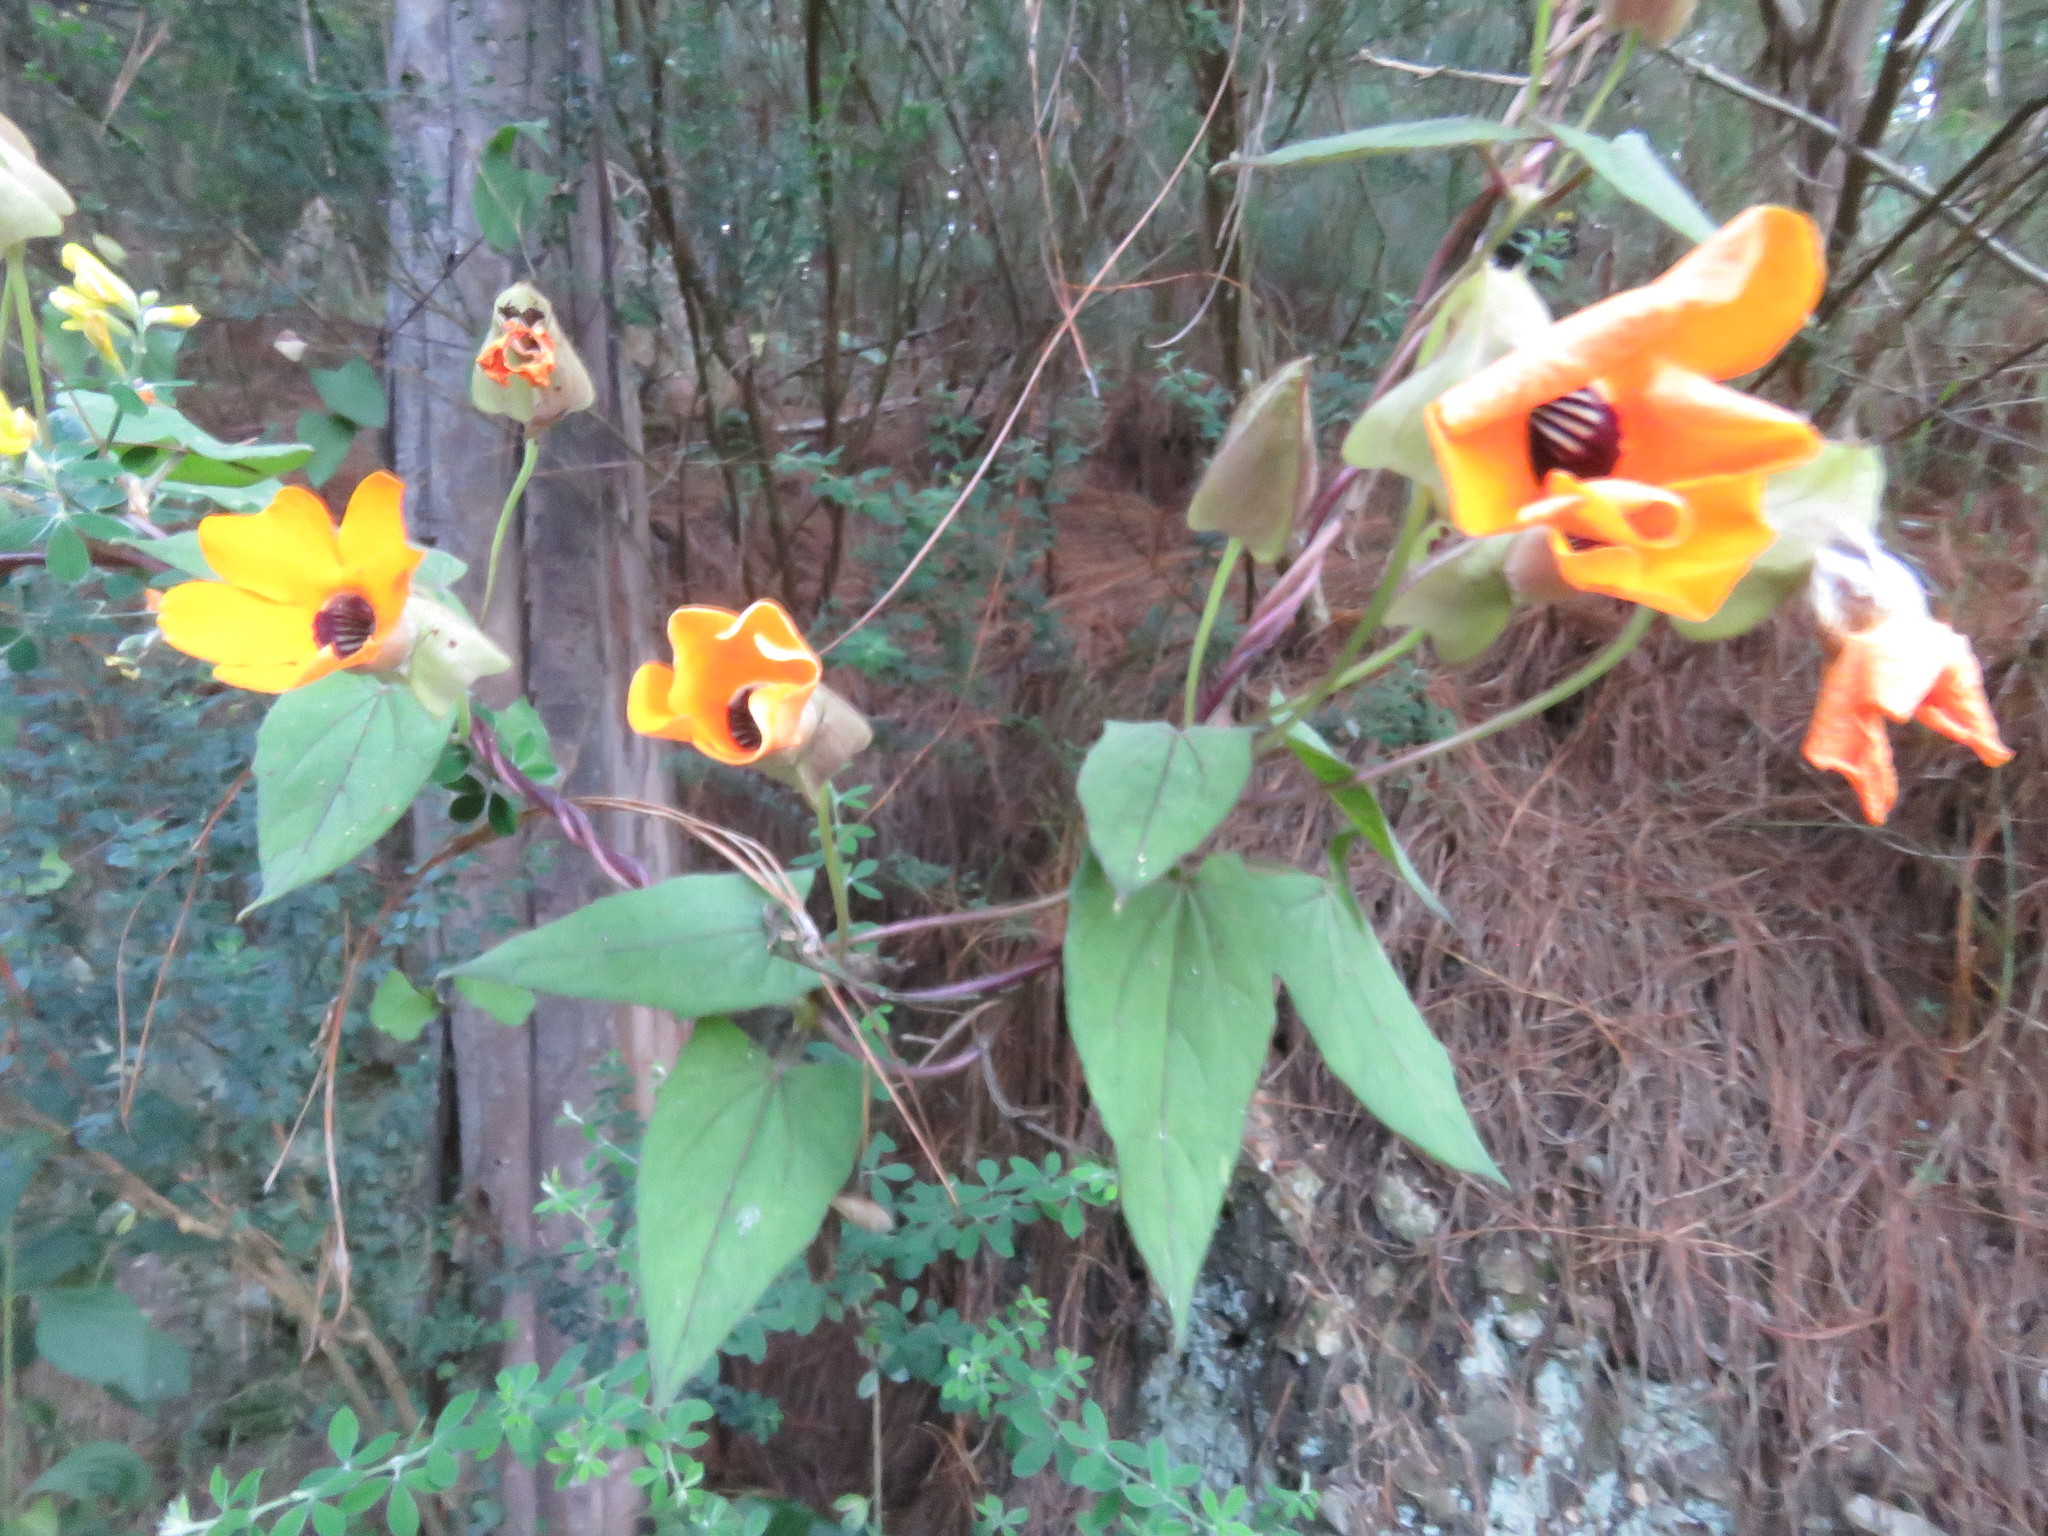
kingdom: Plantae
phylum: Tracheophyta
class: Magnoliopsida
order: Lamiales
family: Acanthaceae
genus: Thunbergia
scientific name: Thunbergia alata
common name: Blackeyed susan vine
